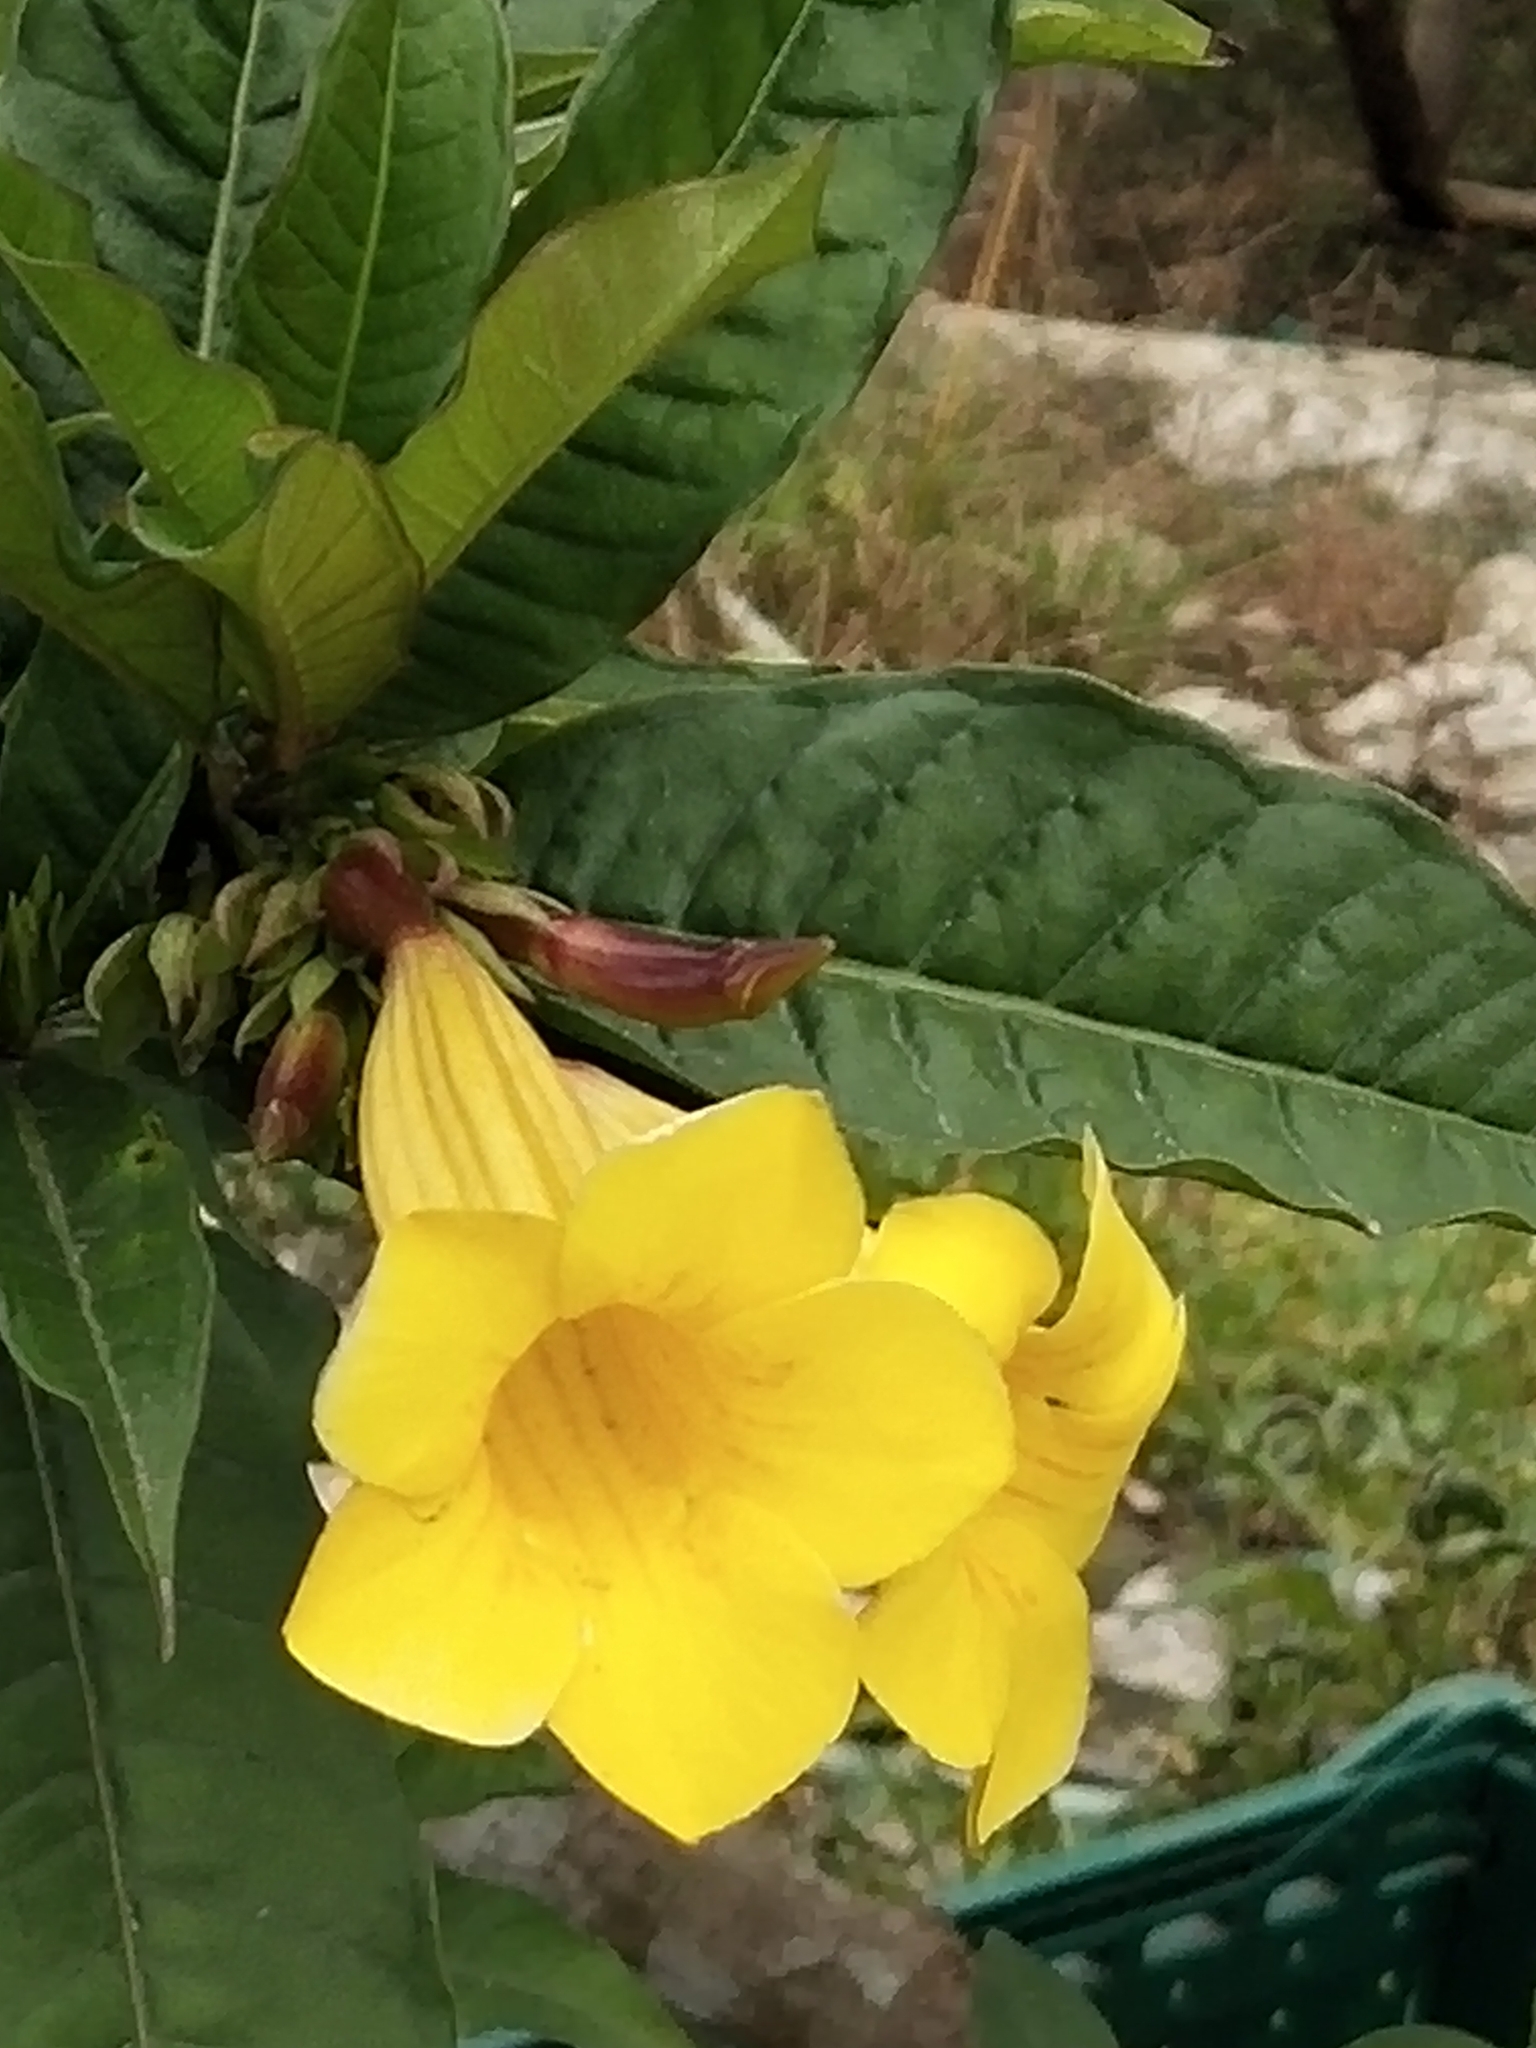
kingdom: Plantae
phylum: Tracheophyta
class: Magnoliopsida
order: Gentianales
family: Apocynaceae
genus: Allamanda
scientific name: Allamanda schottii
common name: Bush allamanda
